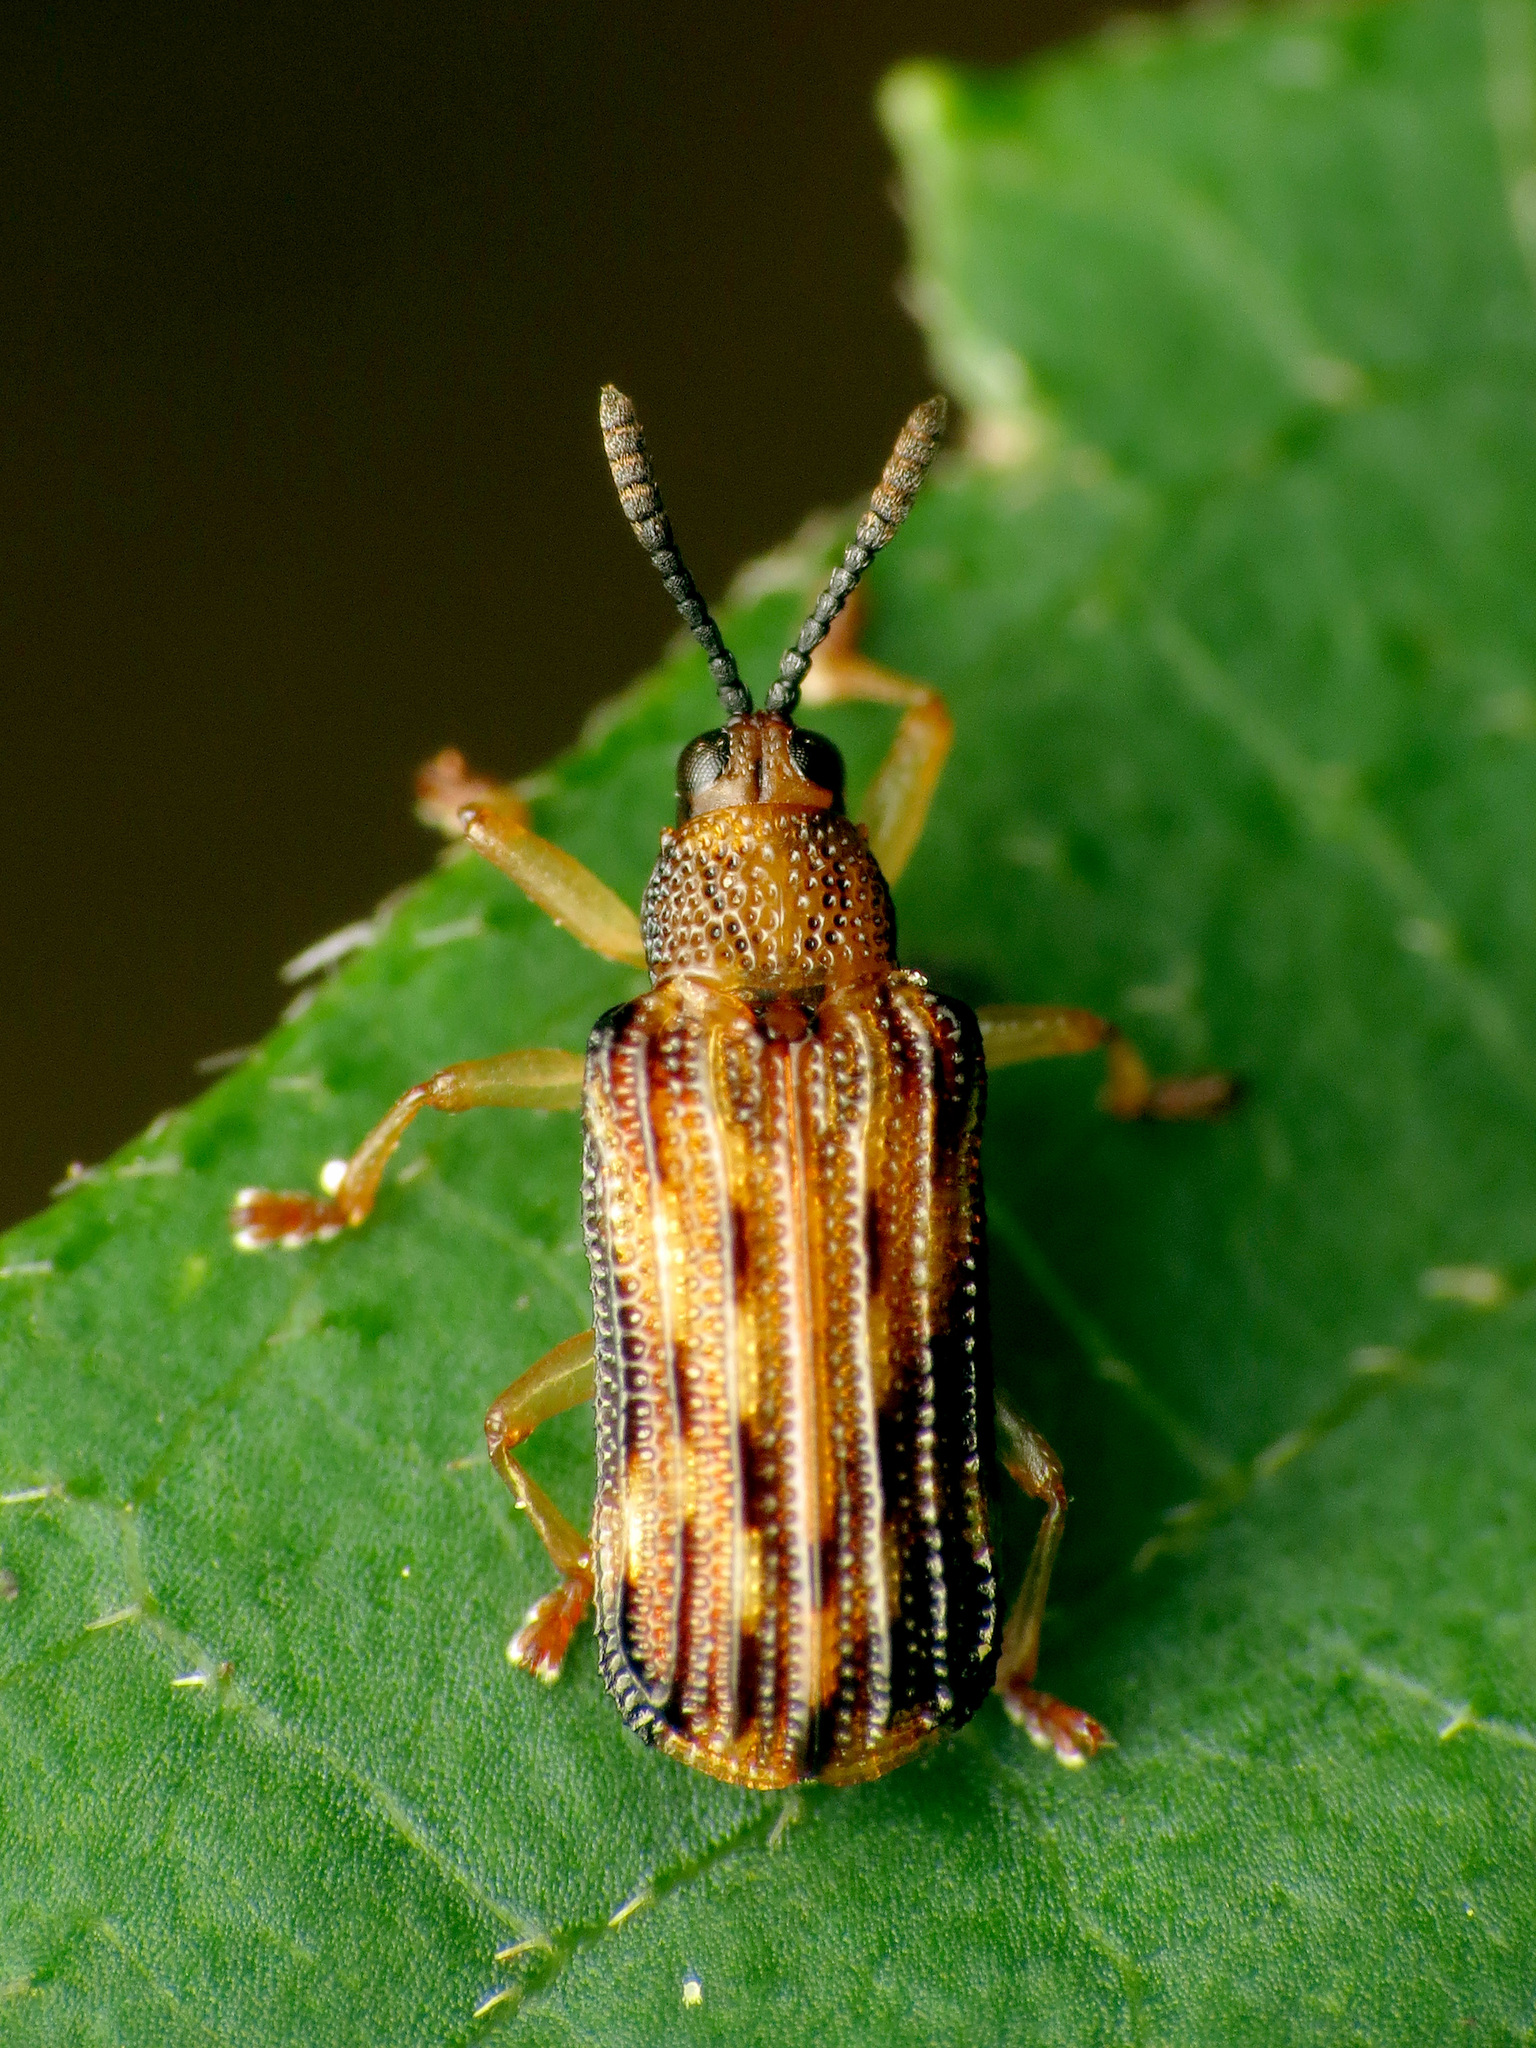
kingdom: Animalia
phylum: Arthropoda
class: Insecta
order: Coleoptera
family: Chrysomelidae
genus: Sumitrosis
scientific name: Sumitrosis inaequalis
